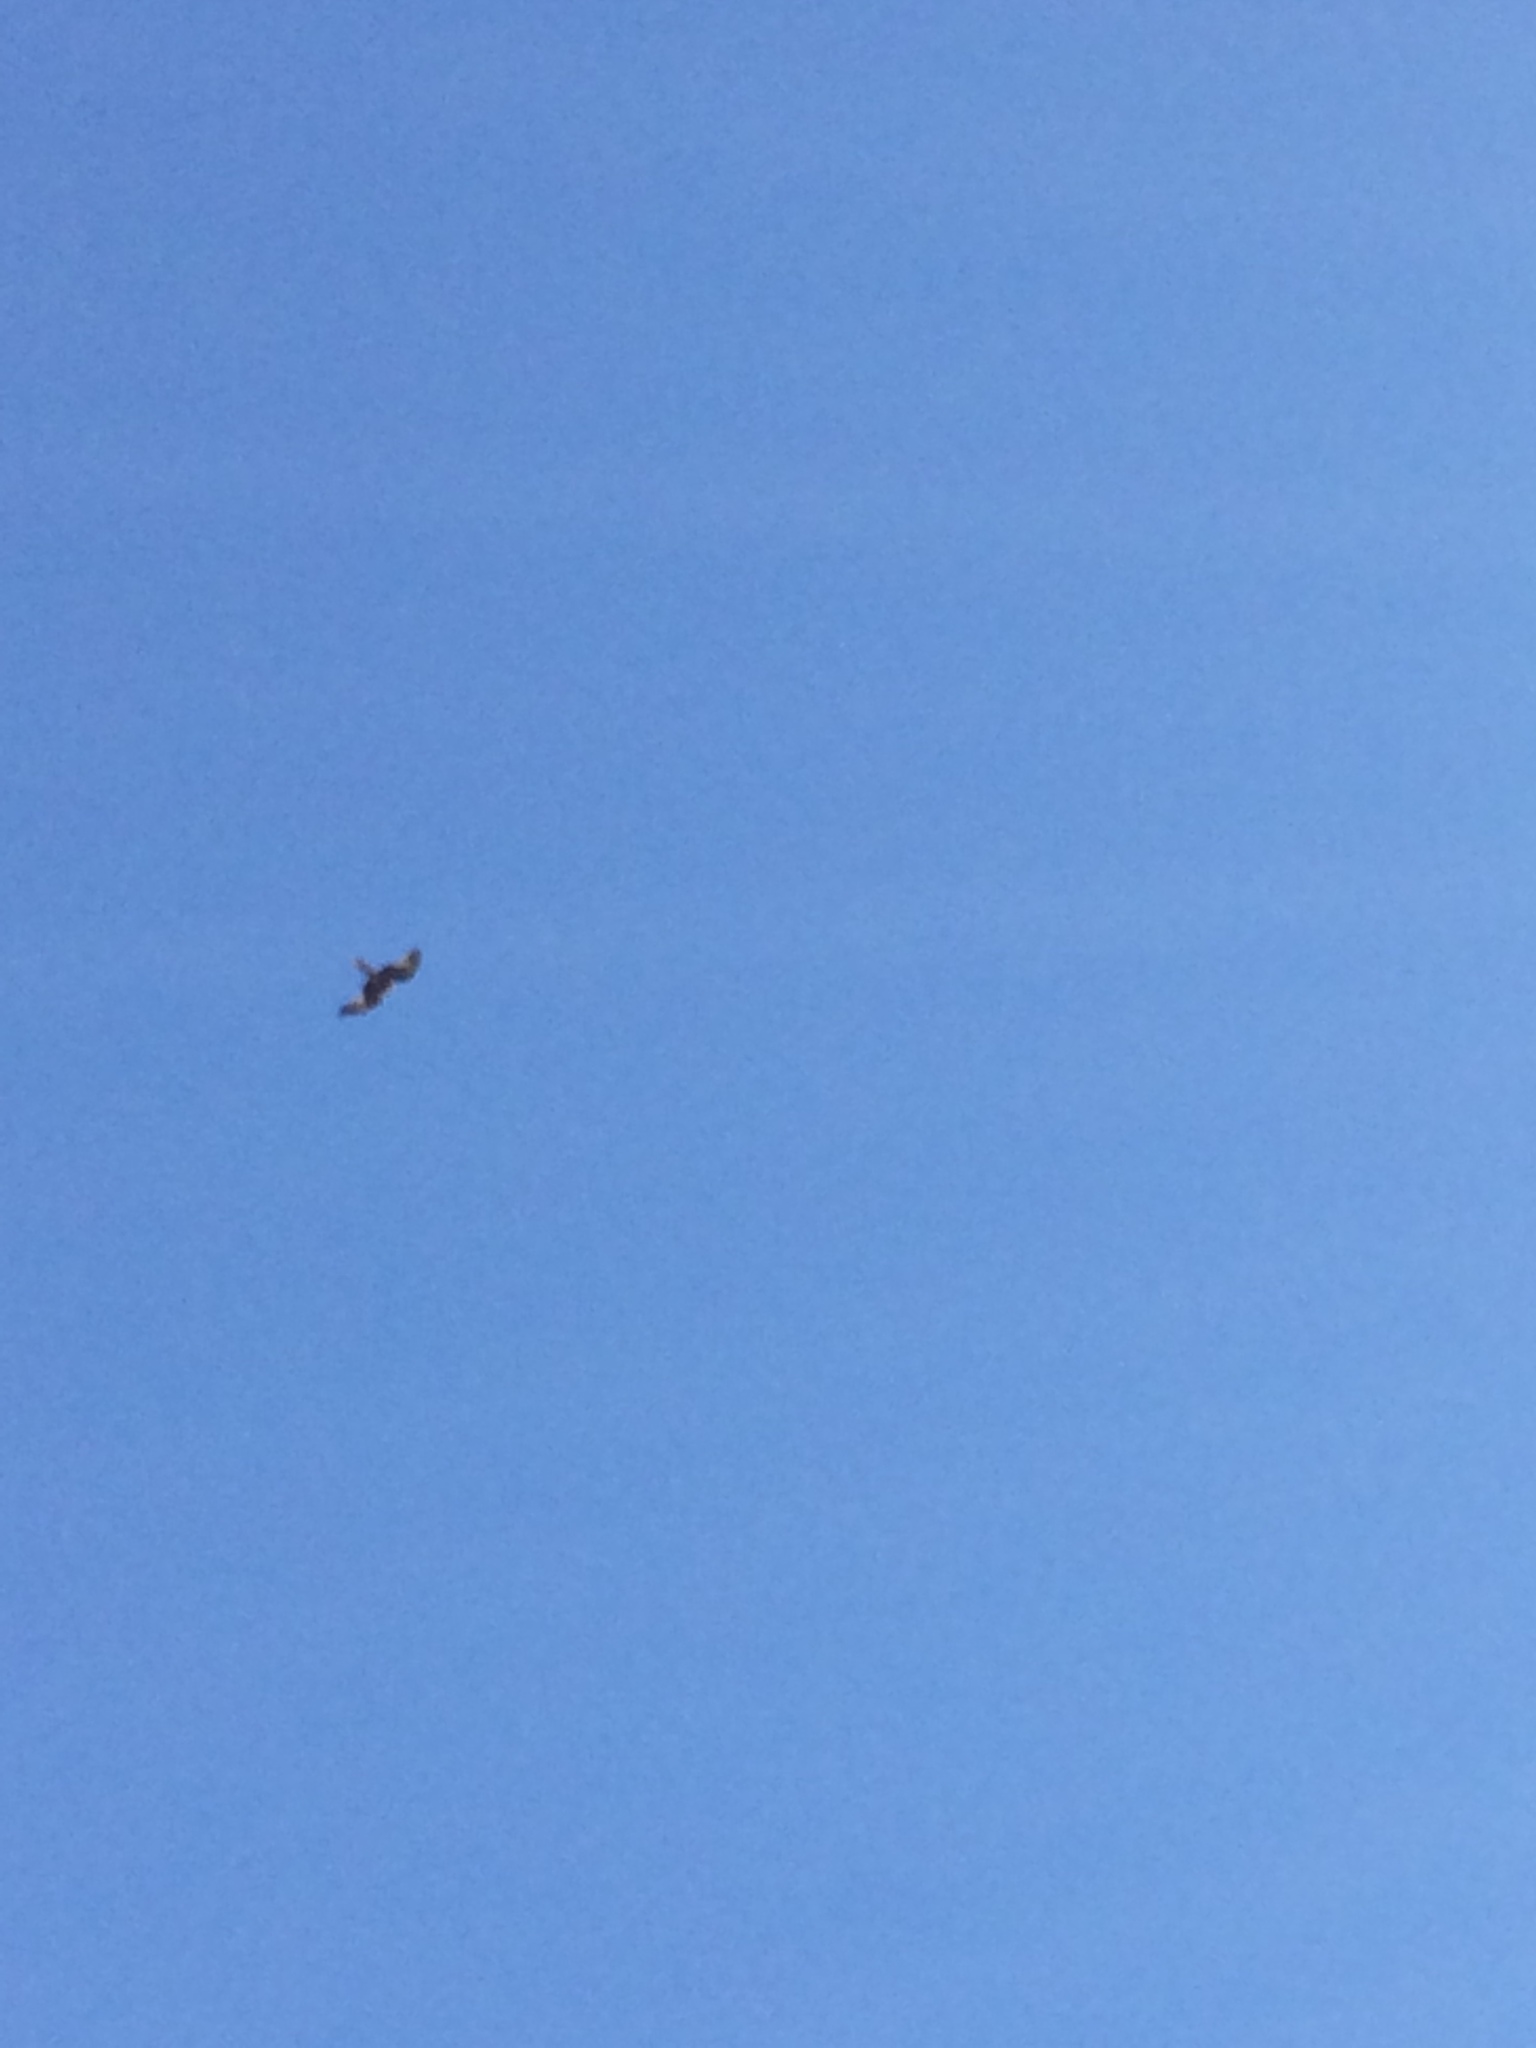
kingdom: Animalia
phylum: Chordata
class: Aves
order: Accipitriformes
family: Accipitridae
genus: Milvus
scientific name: Milvus milvus
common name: Red kite
